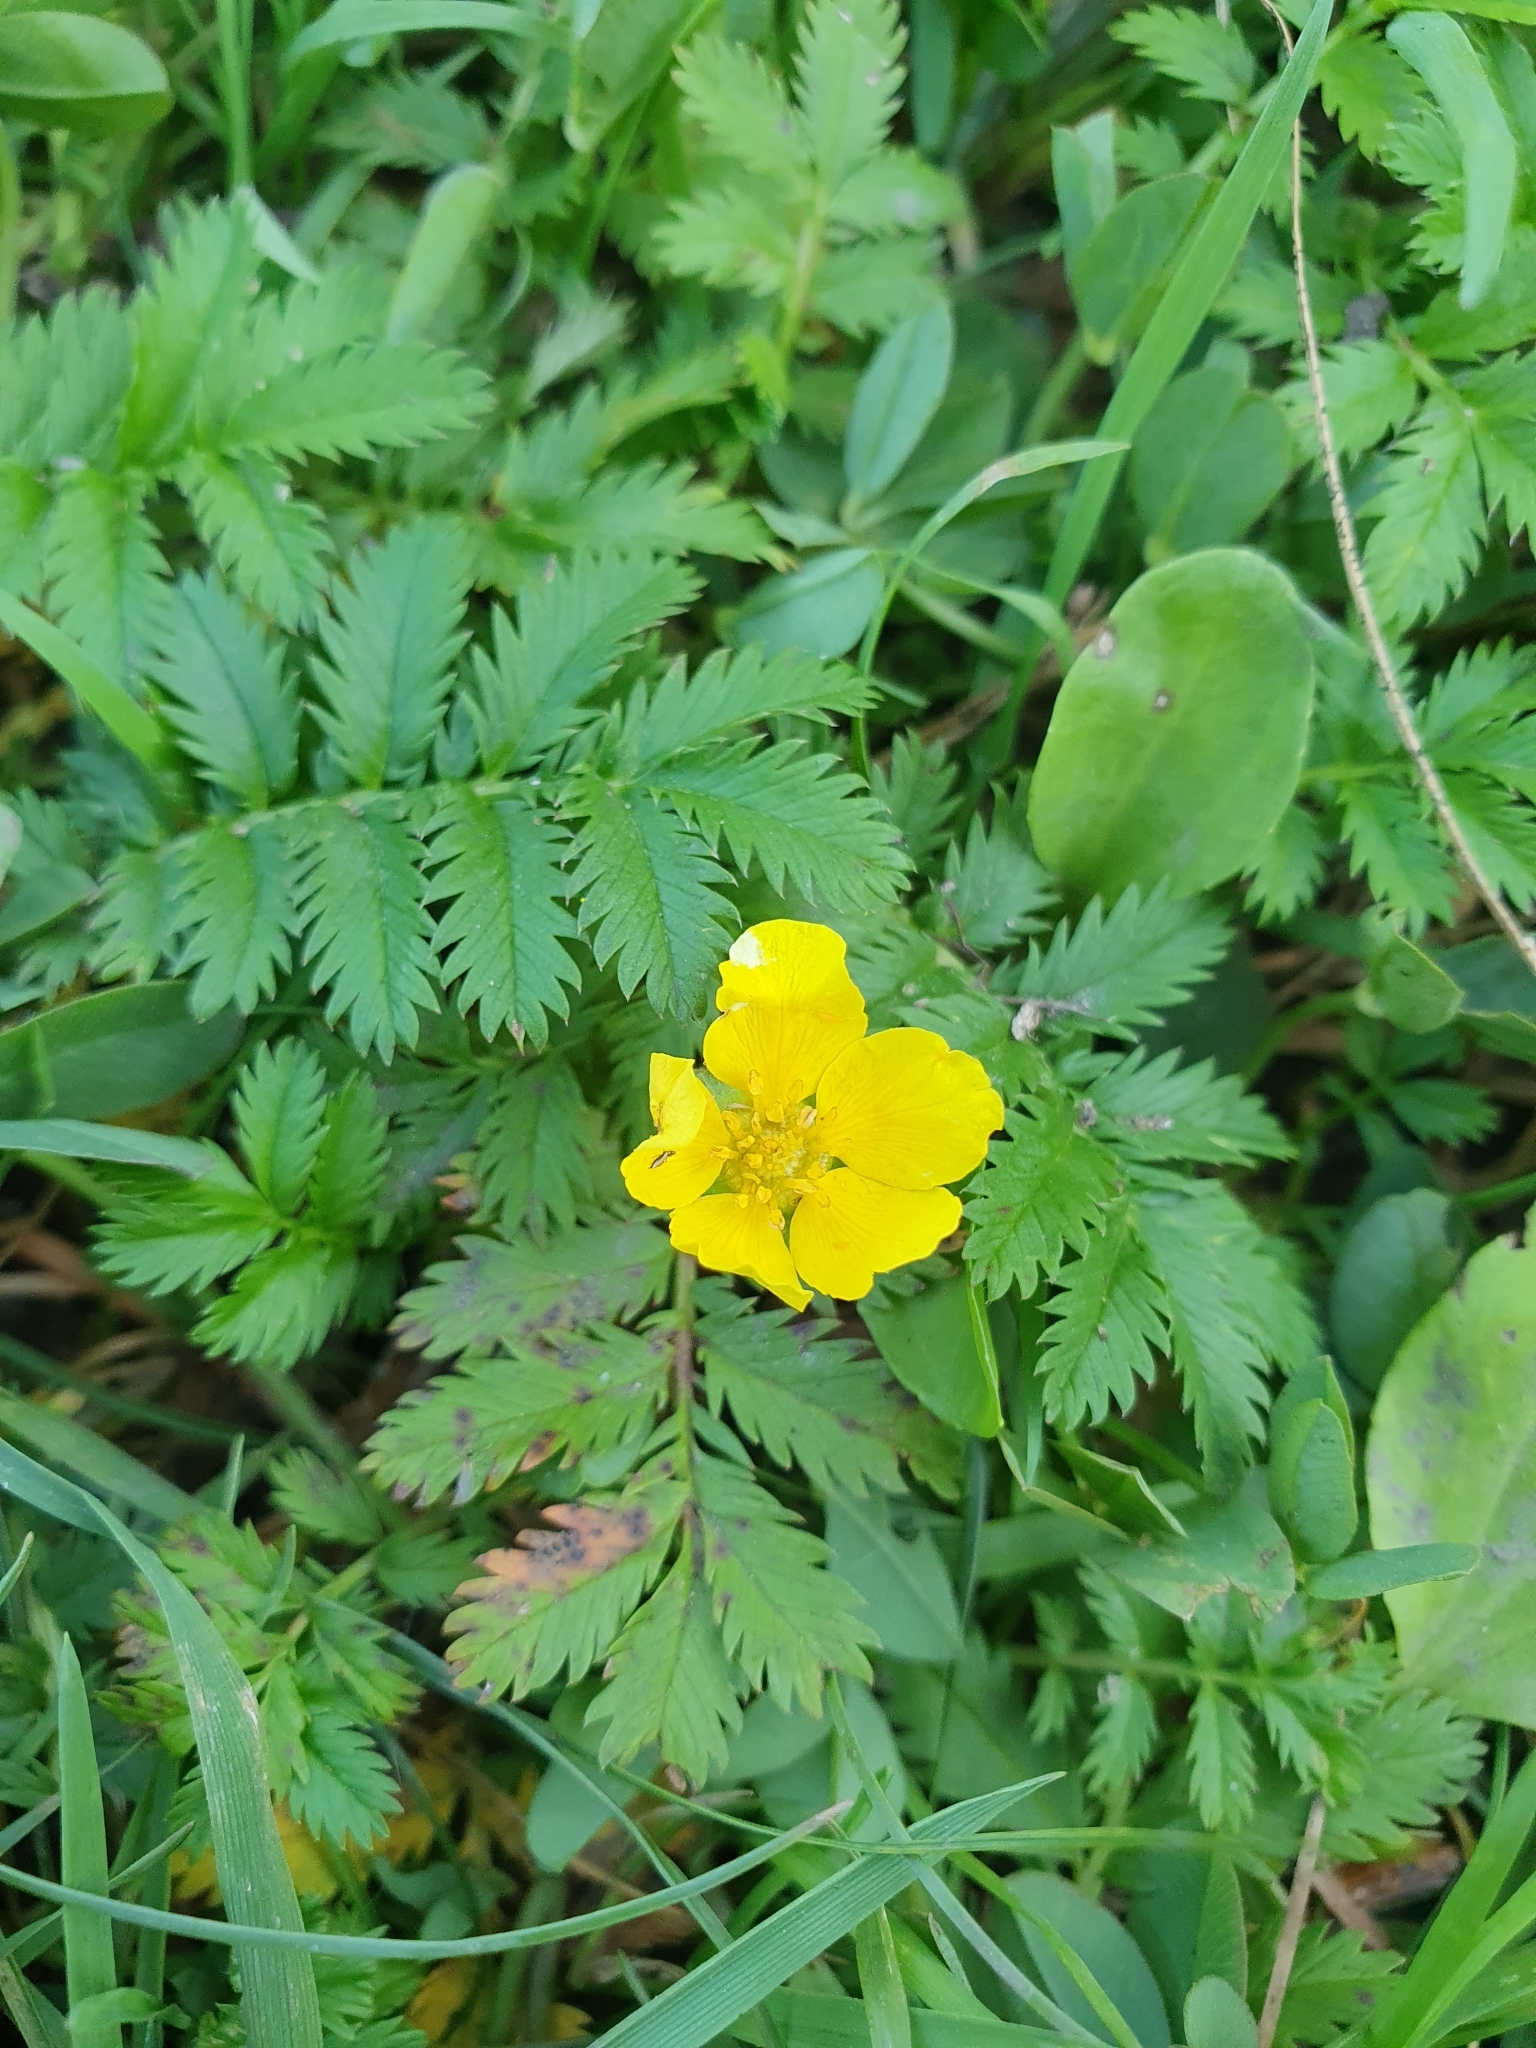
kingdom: Plantae
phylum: Tracheophyta
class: Magnoliopsida
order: Rosales
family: Rosaceae
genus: Argentina
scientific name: Argentina anserina
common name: Common silverweed
